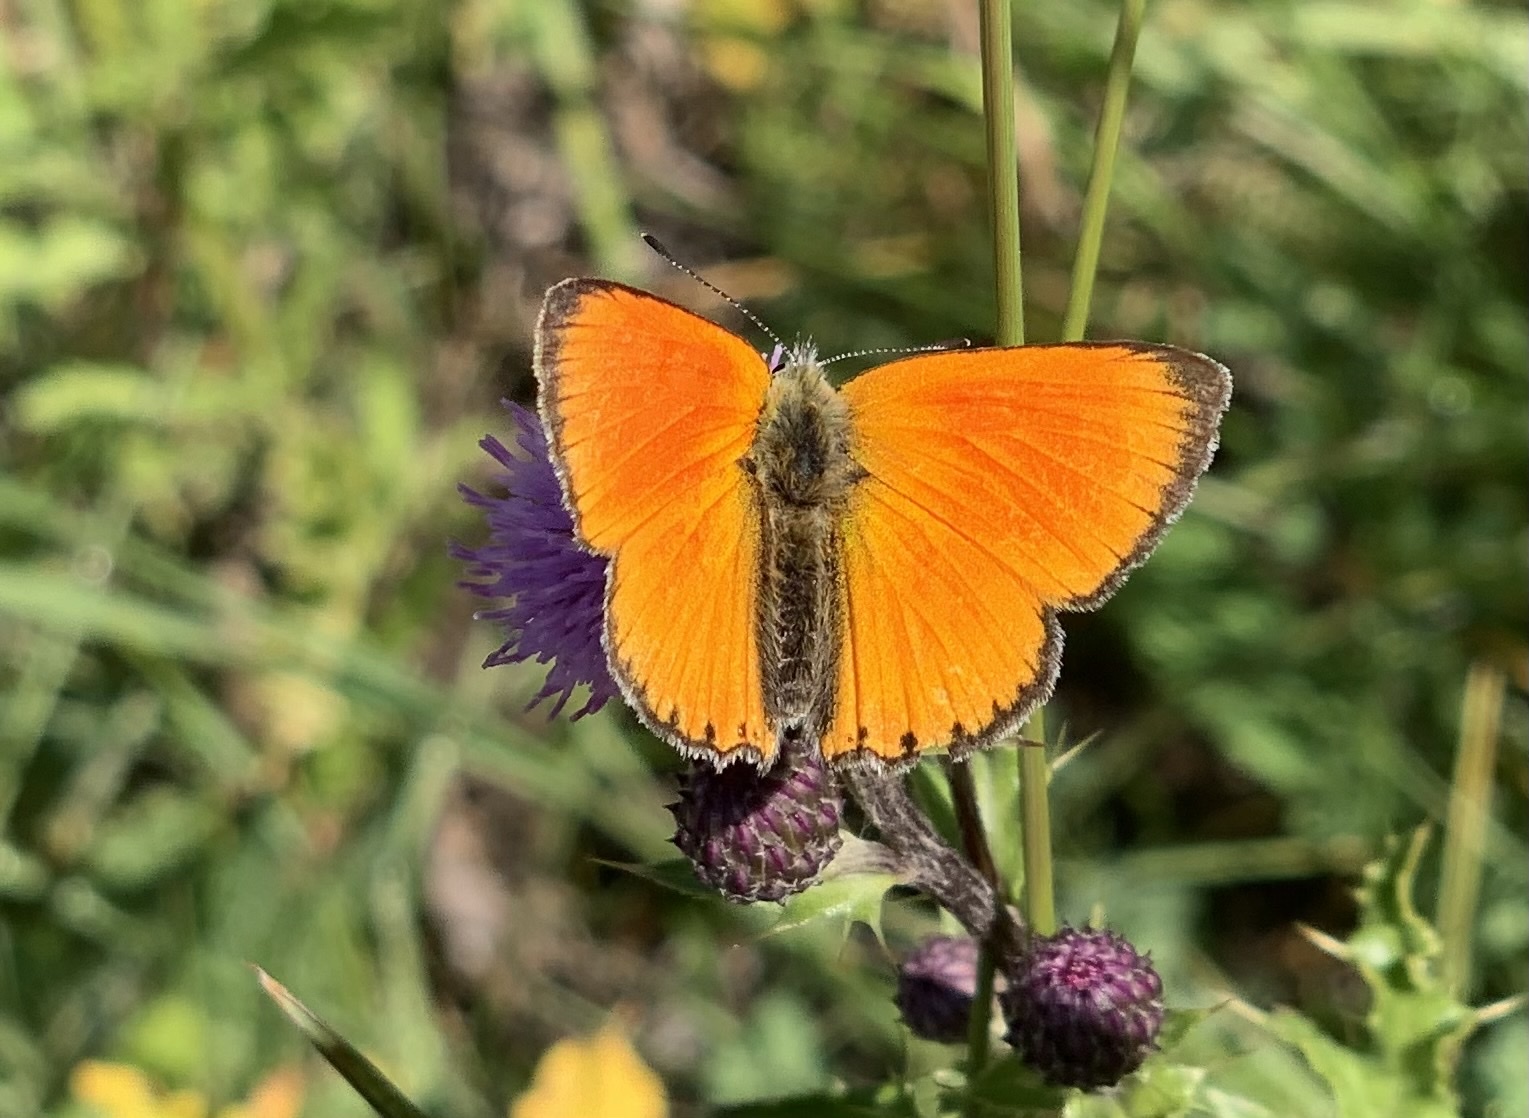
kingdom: Animalia
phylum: Arthropoda
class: Insecta
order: Lepidoptera
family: Lycaenidae
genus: Lycaena
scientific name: Lycaena virgaureae
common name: Scarce copper
